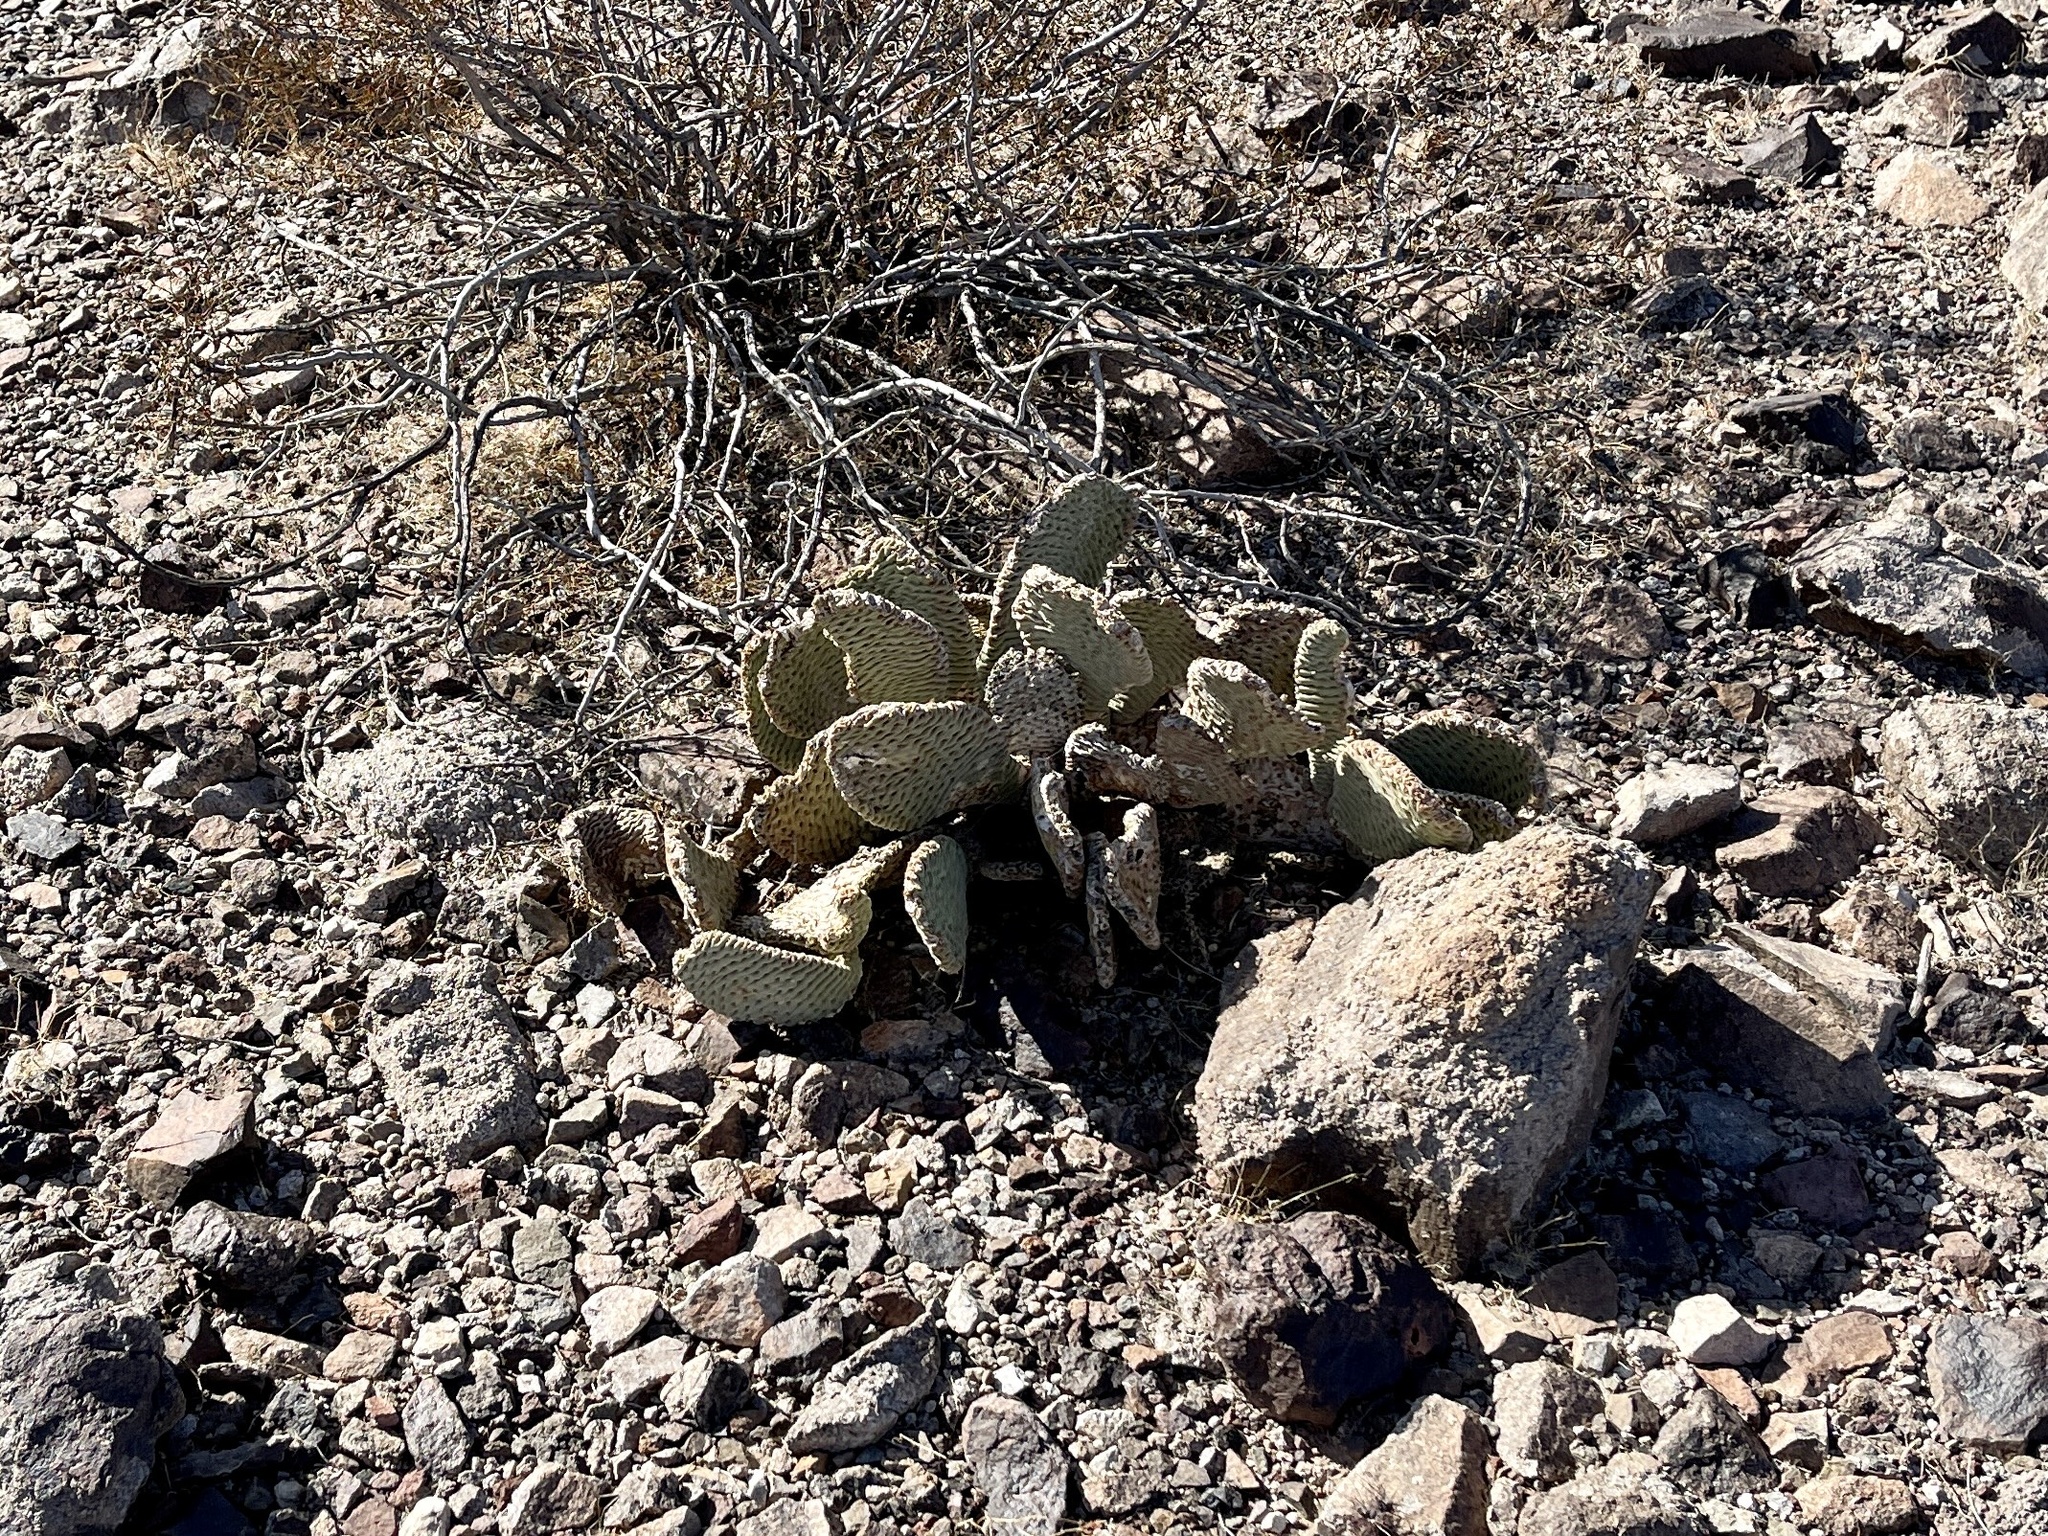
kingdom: Plantae
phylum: Tracheophyta
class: Magnoliopsida
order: Caryophyllales
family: Cactaceae
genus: Opuntia
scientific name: Opuntia basilaris
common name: Beavertail prickly-pear
